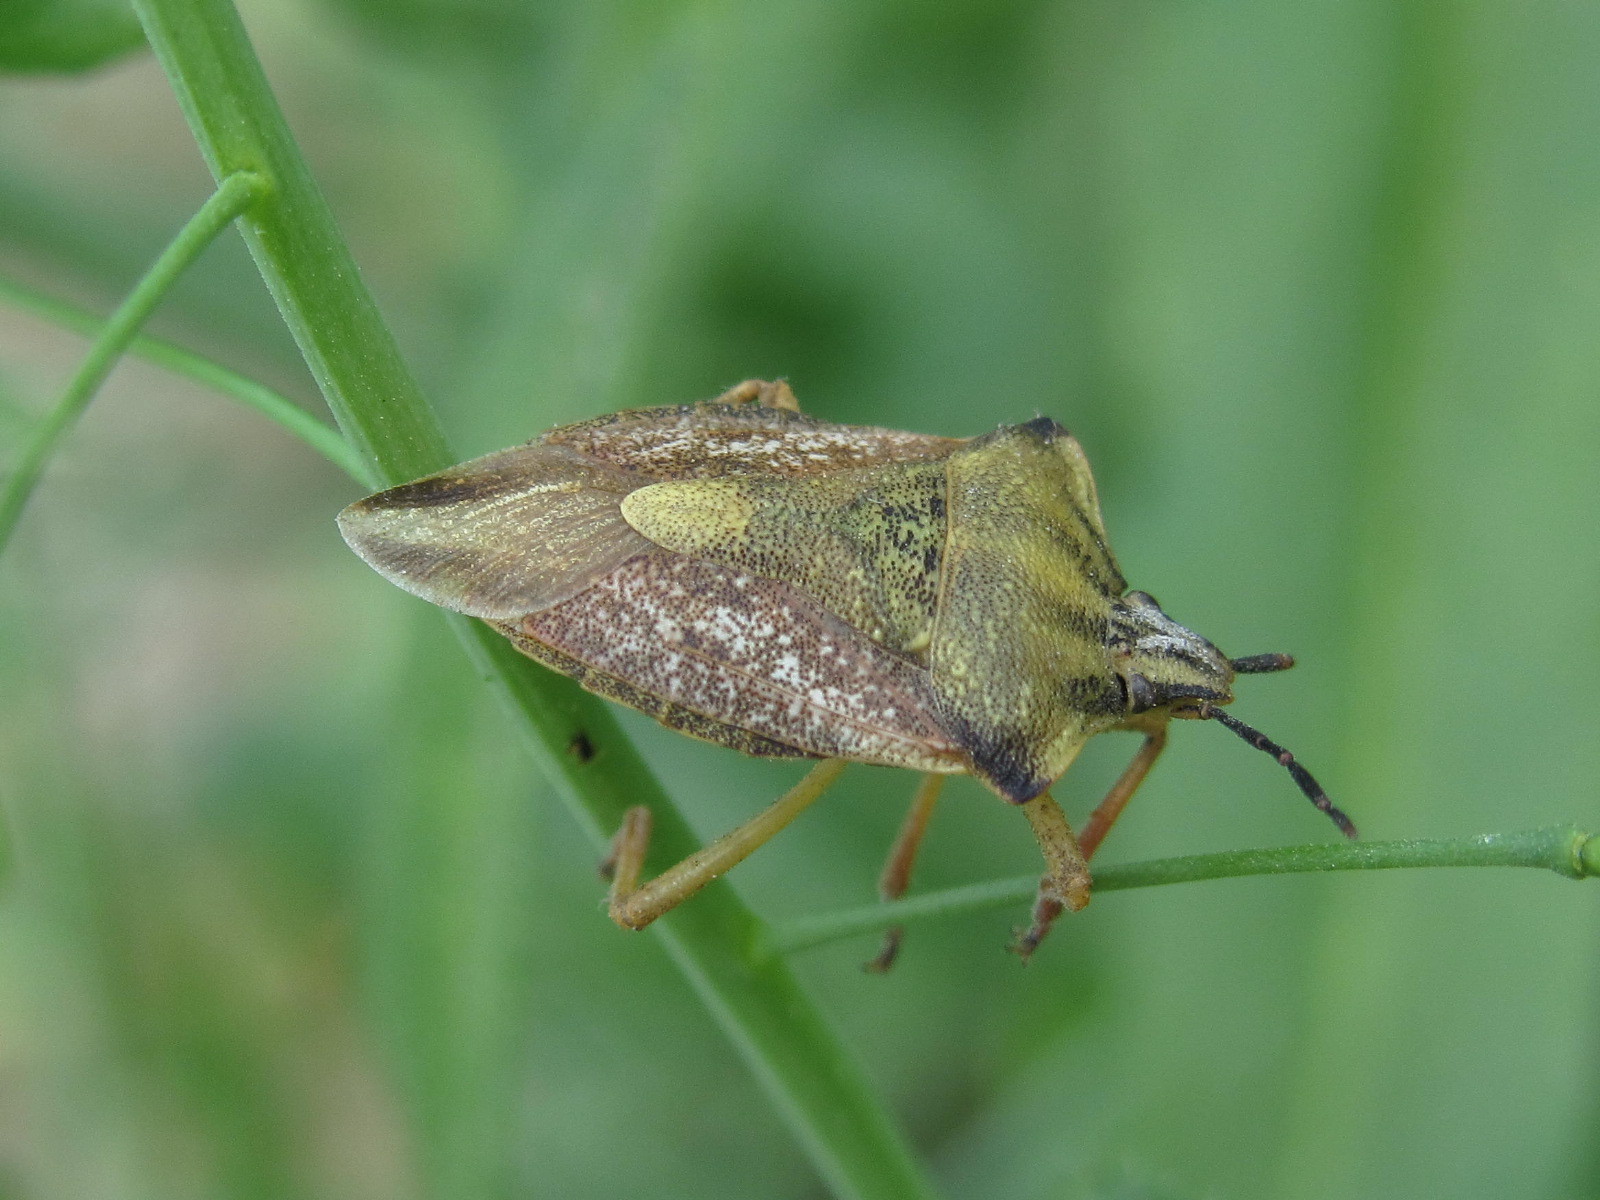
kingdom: Animalia
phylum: Arthropoda
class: Insecta
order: Hemiptera
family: Pentatomidae
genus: Carpocoris
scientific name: Carpocoris fuscispinus
